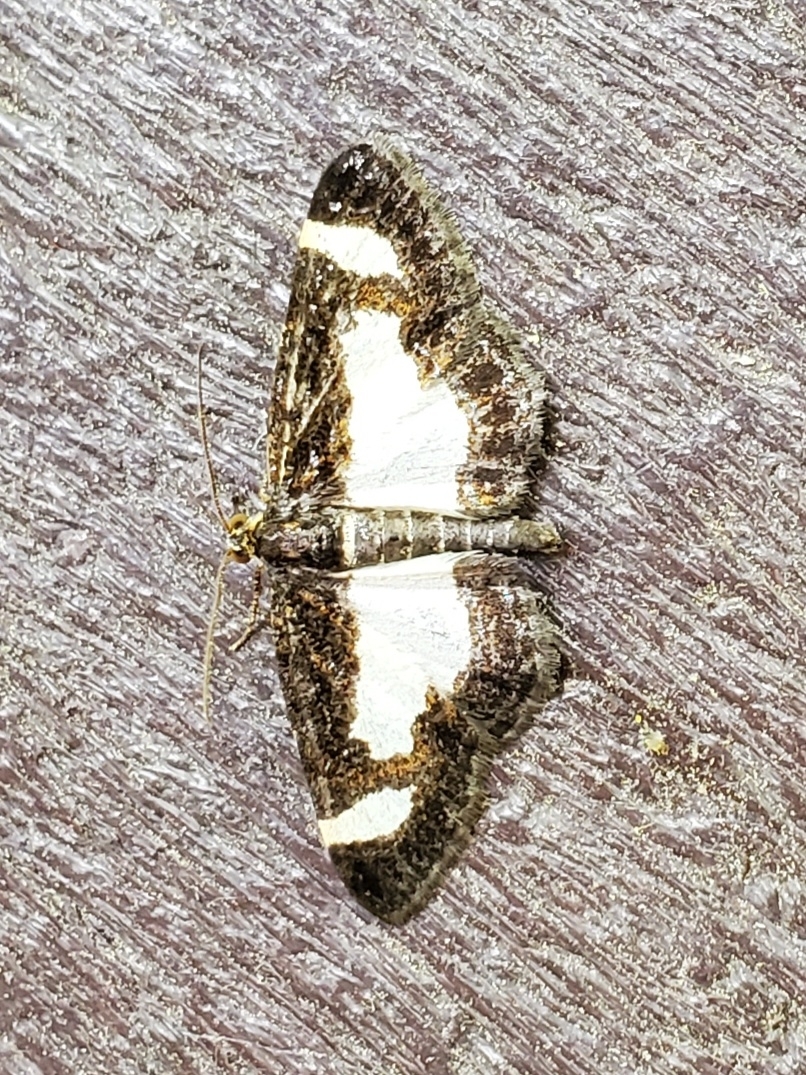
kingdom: Animalia
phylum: Arthropoda
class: Insecta
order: Lepidoptera
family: Geometridae
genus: Heliomata
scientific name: Heliomata cycladata
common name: Common spring moth
